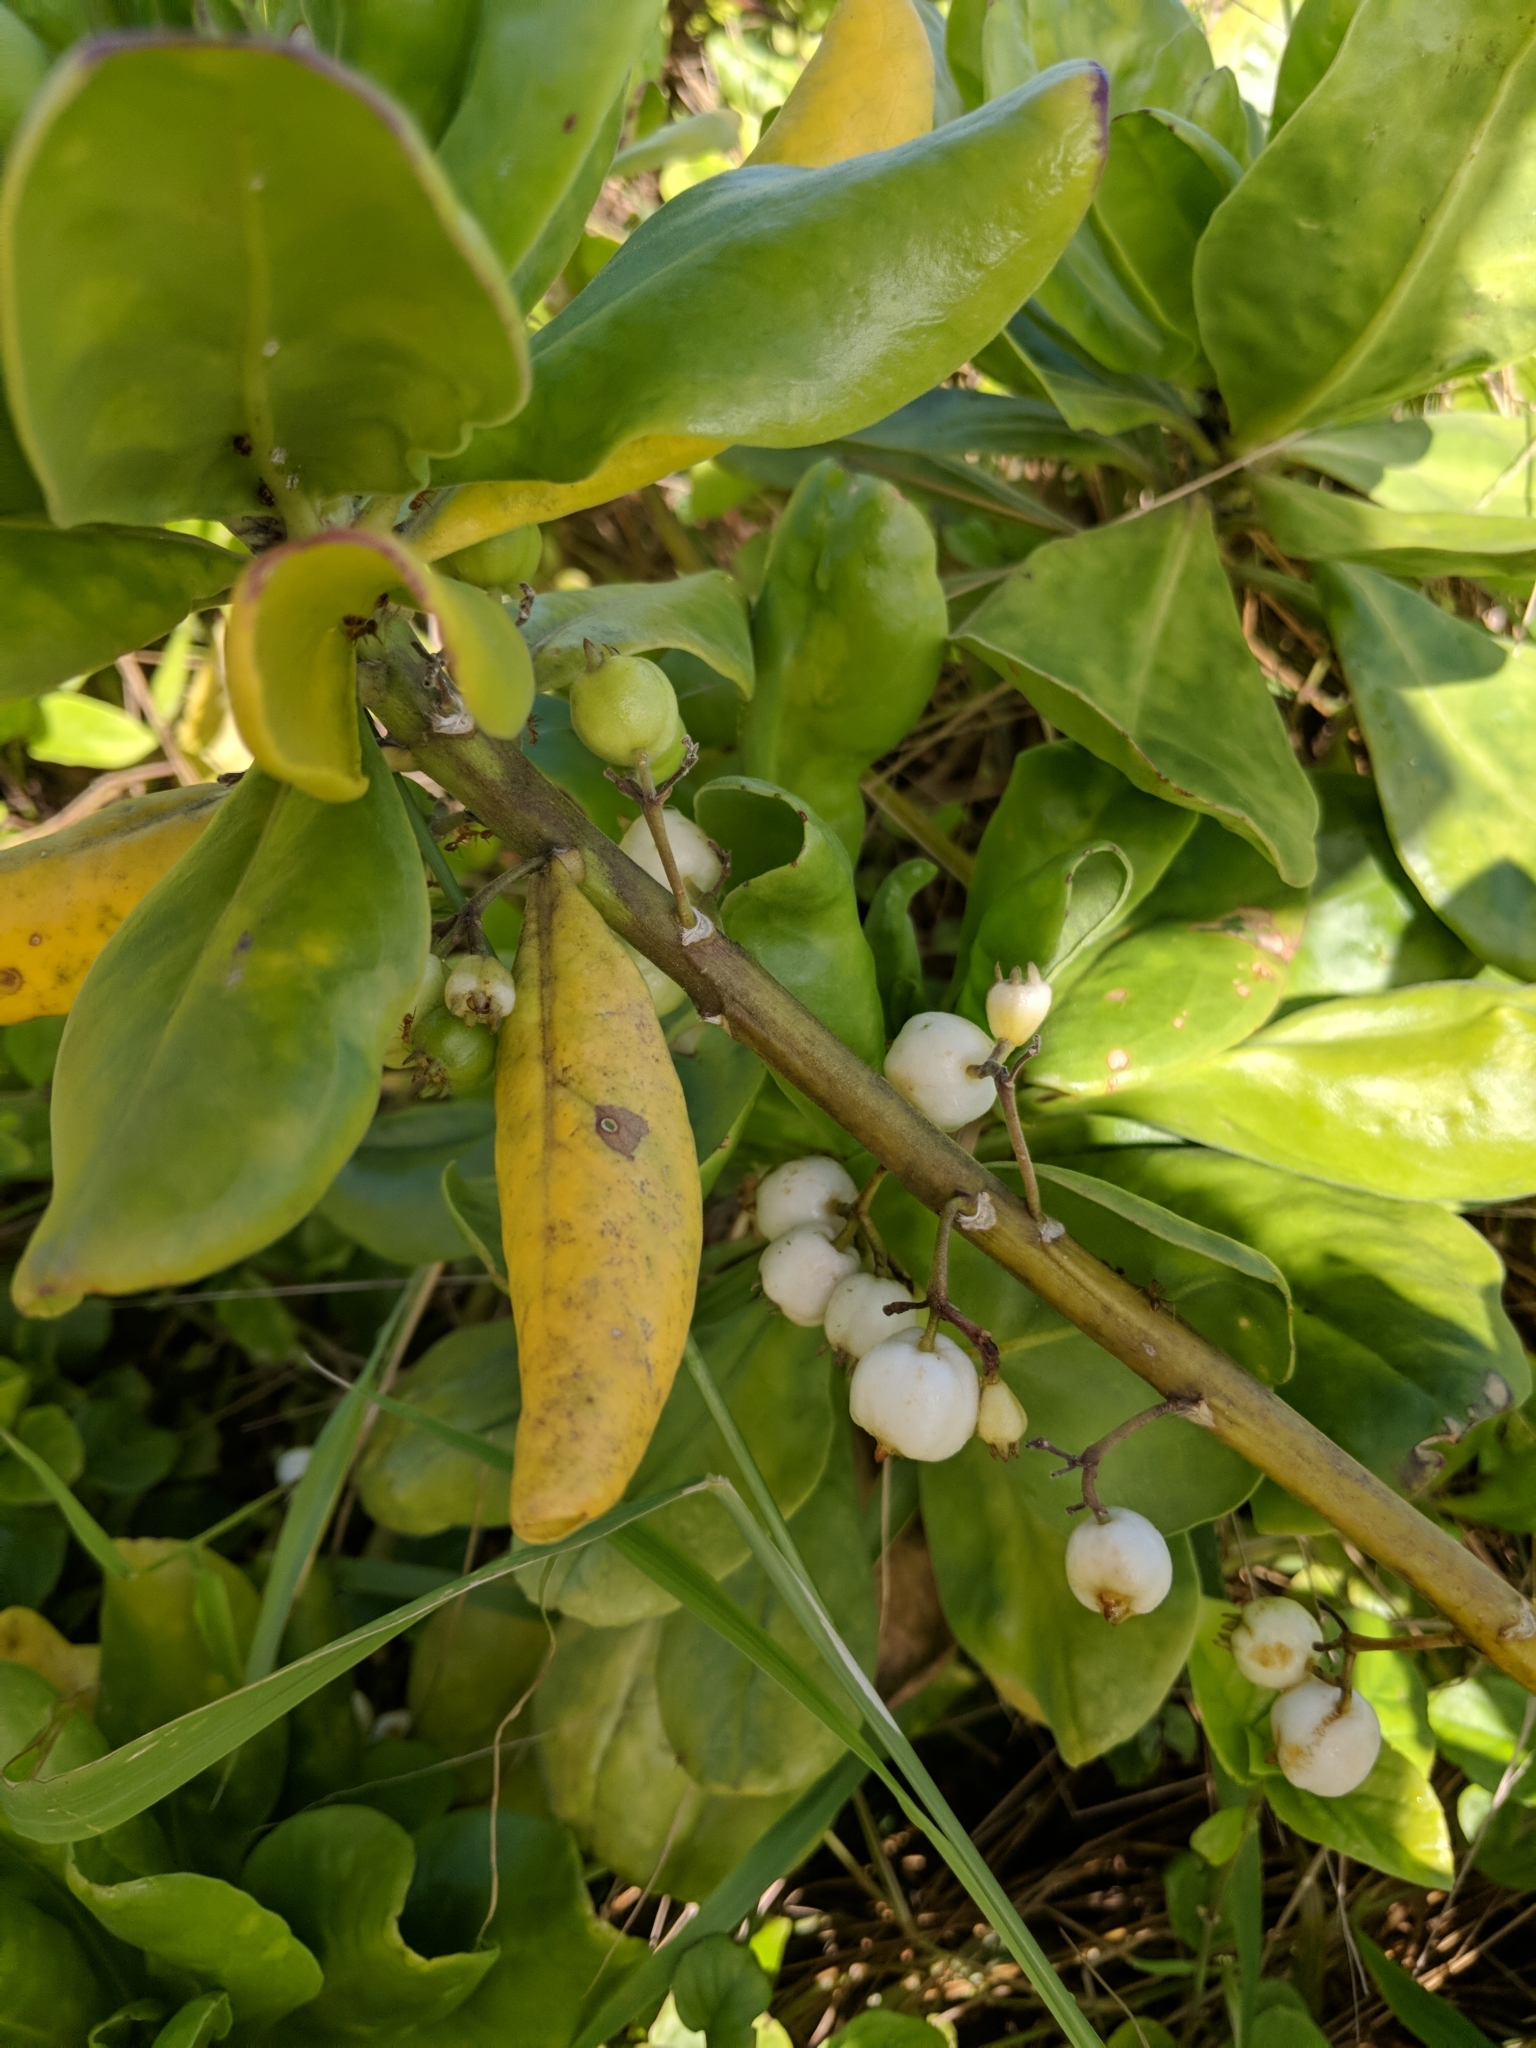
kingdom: Plantae
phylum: Tracheophyta
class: Magnoliopsida
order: Asterales
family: Goodeniaceae
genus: Scaevola
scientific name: Scaevola taccada
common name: Sea lettucetree
